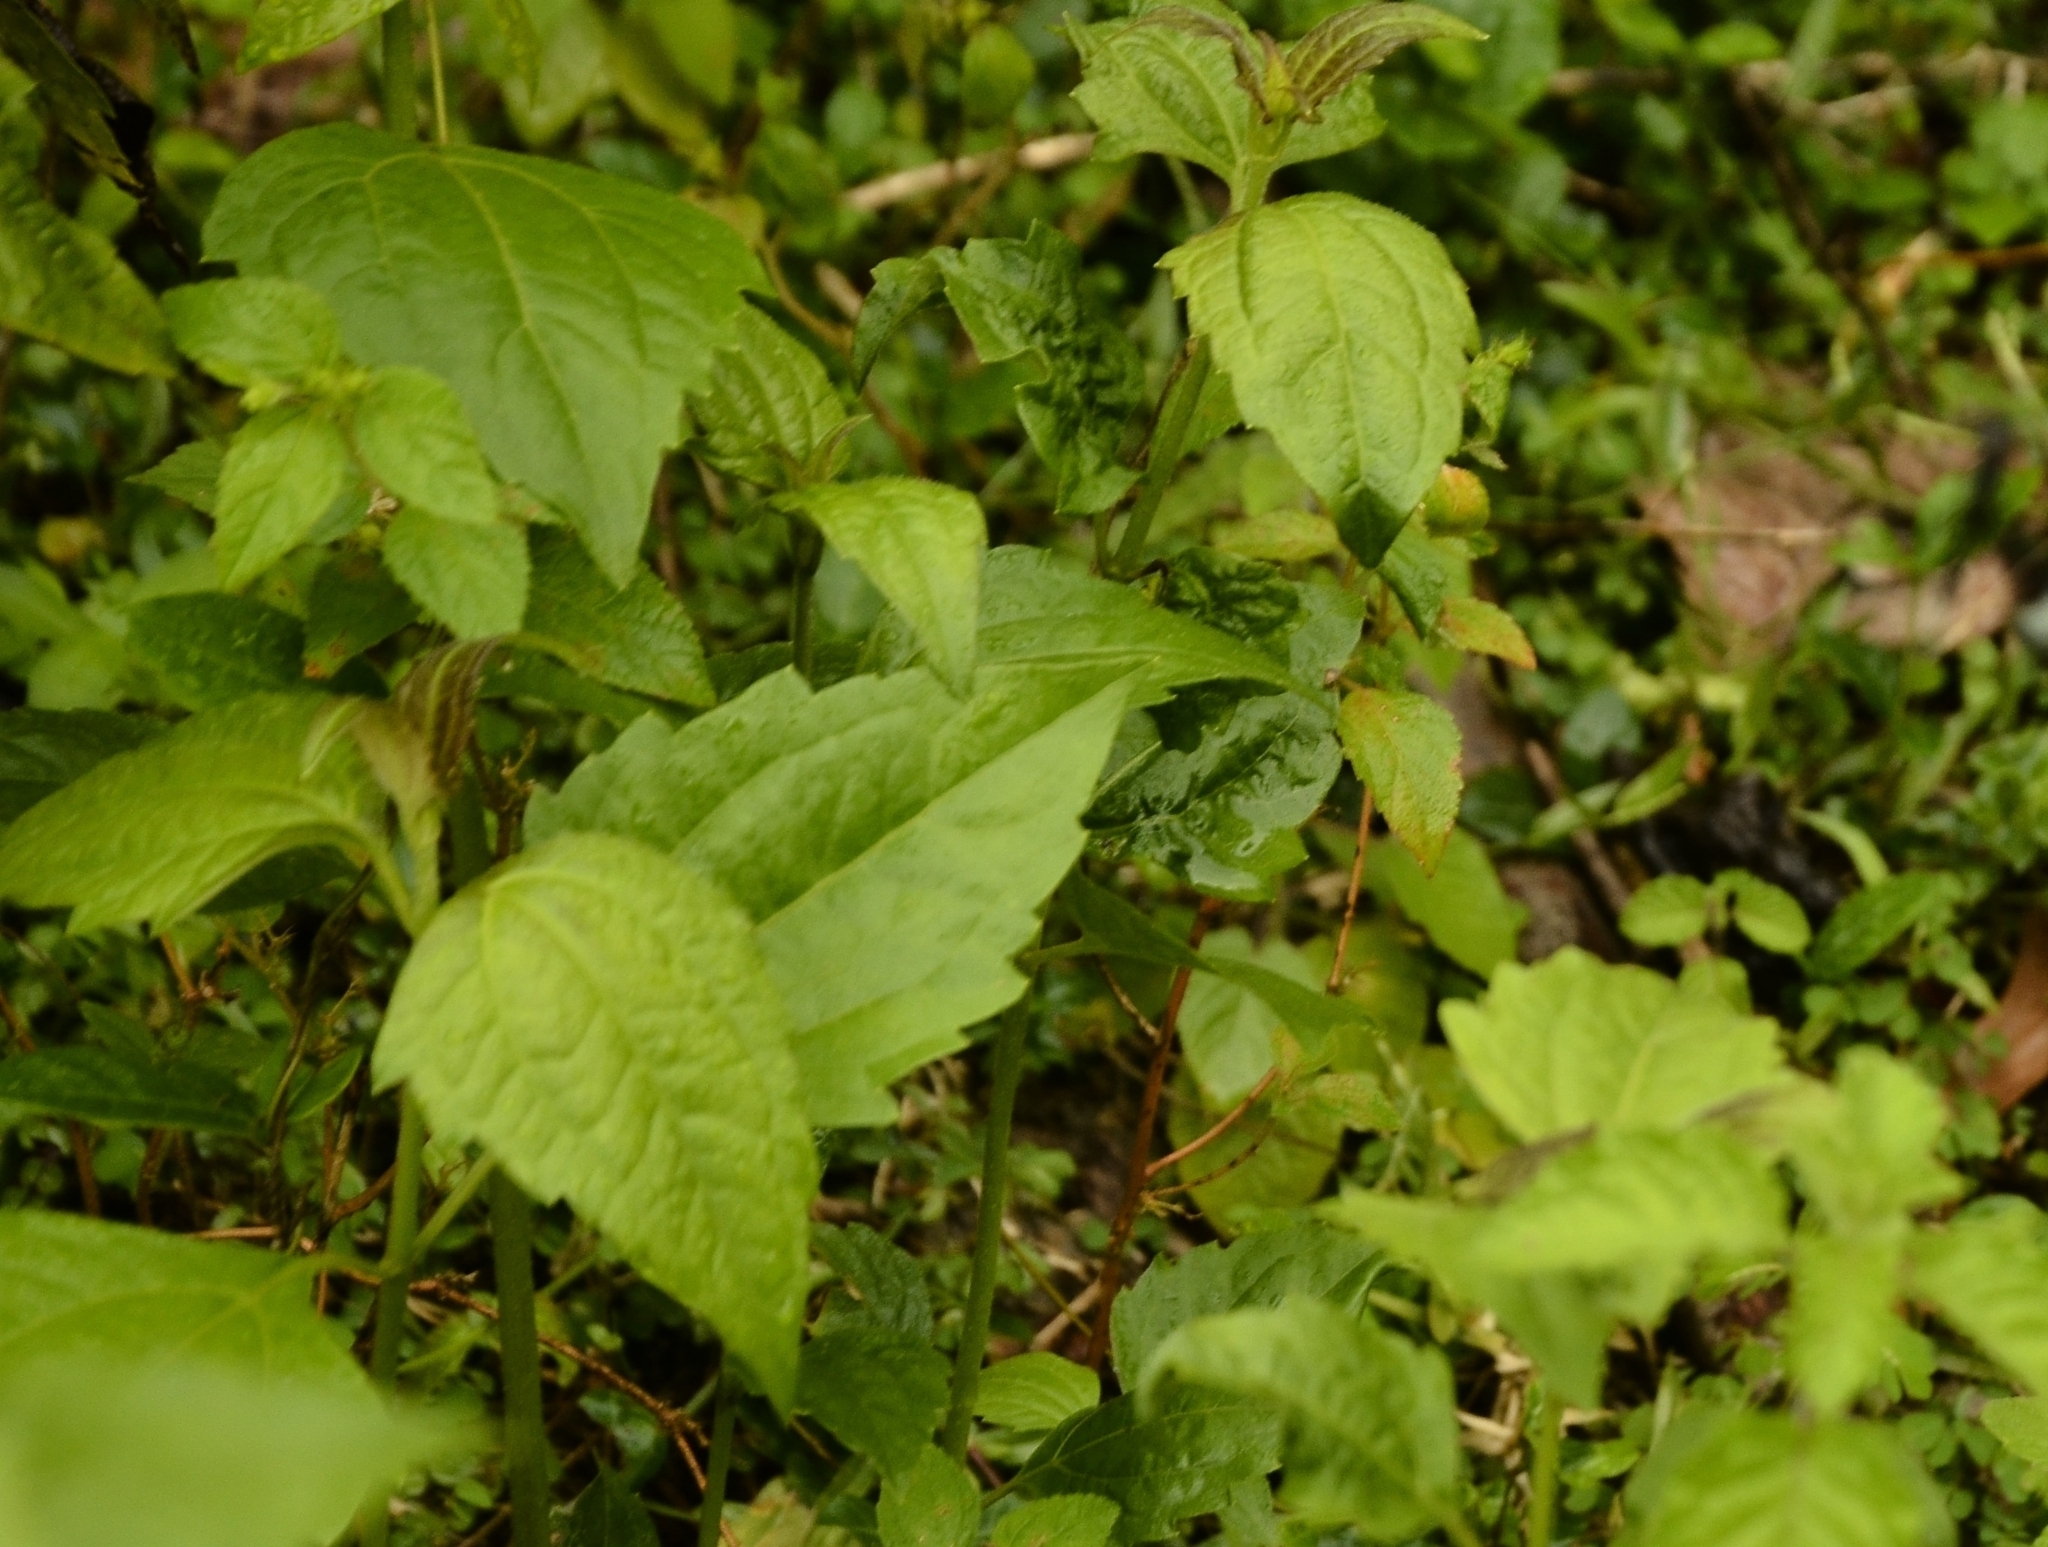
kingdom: Plantae
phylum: Tracheophyta
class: Magnoliopsida
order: Asterales
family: Asteraceae
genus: Chromolaena
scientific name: Chromolaena odorata
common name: Siamweed
